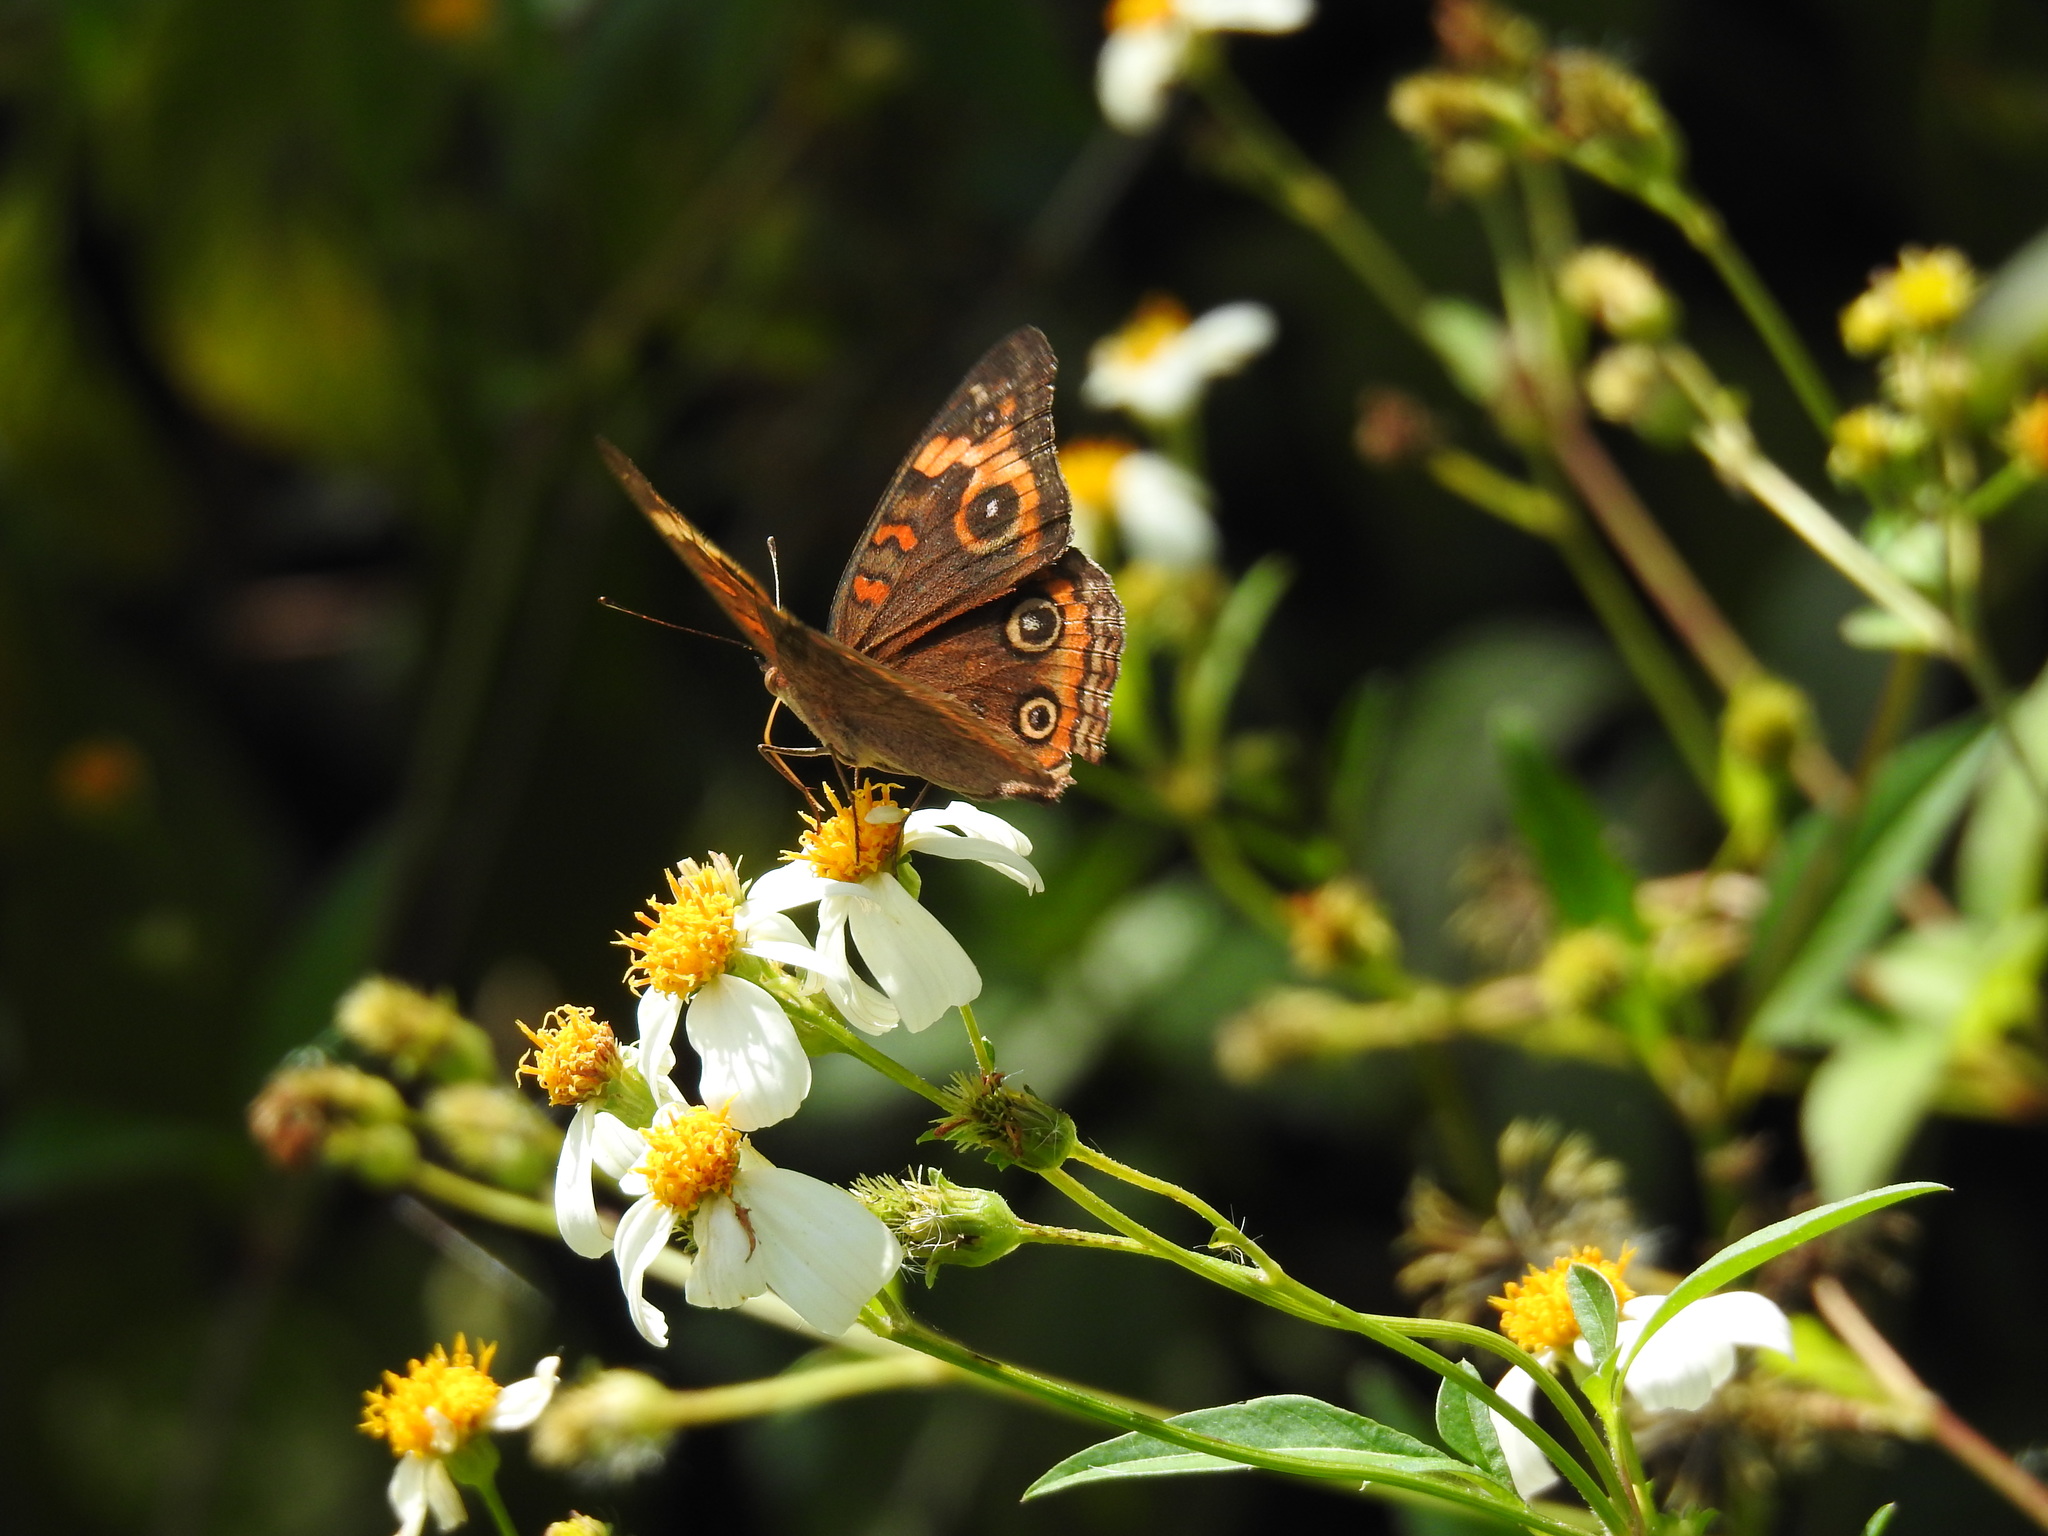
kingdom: Animalia
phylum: Arthropoda
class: Insecta
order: Lepidoptera
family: Nymphalidae
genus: Junonia
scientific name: Junonia neildi
